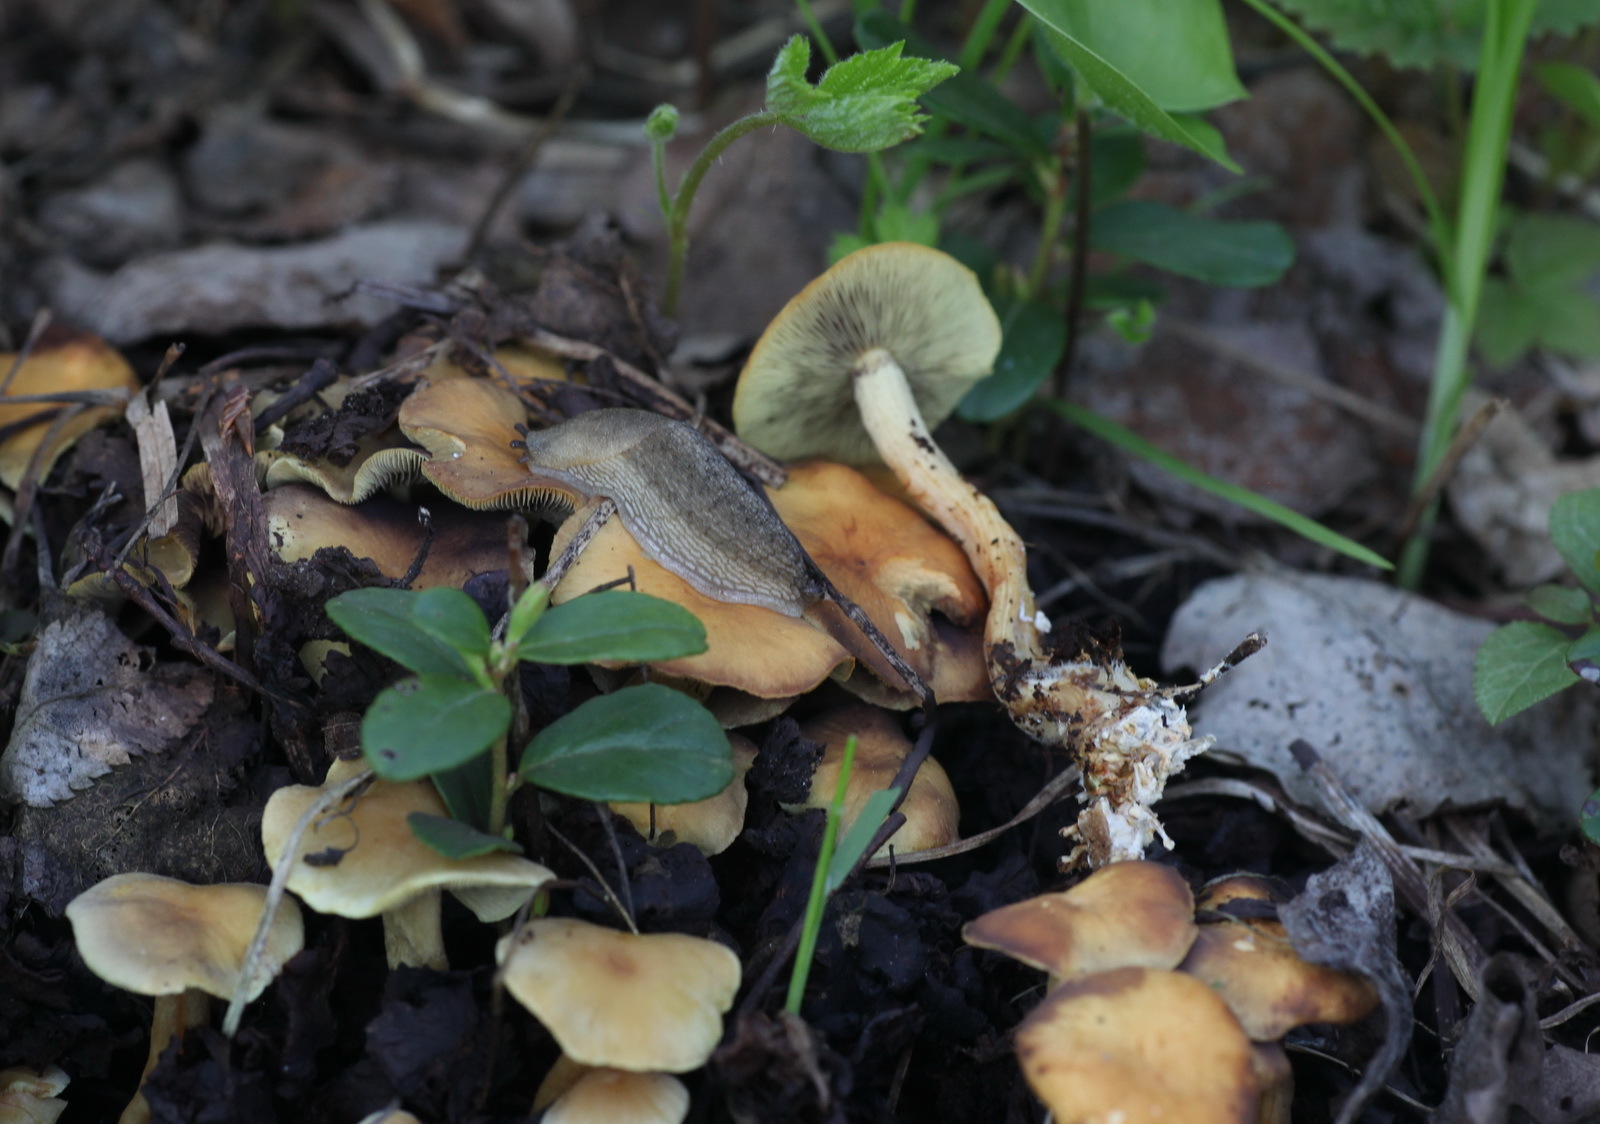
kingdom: Fungi
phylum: Basidiomycota
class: Agaricomycetes
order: Agaricales
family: Strophariaceae
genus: Hypholoma
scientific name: Hypholoma fasciculare
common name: Sulphur tuft
